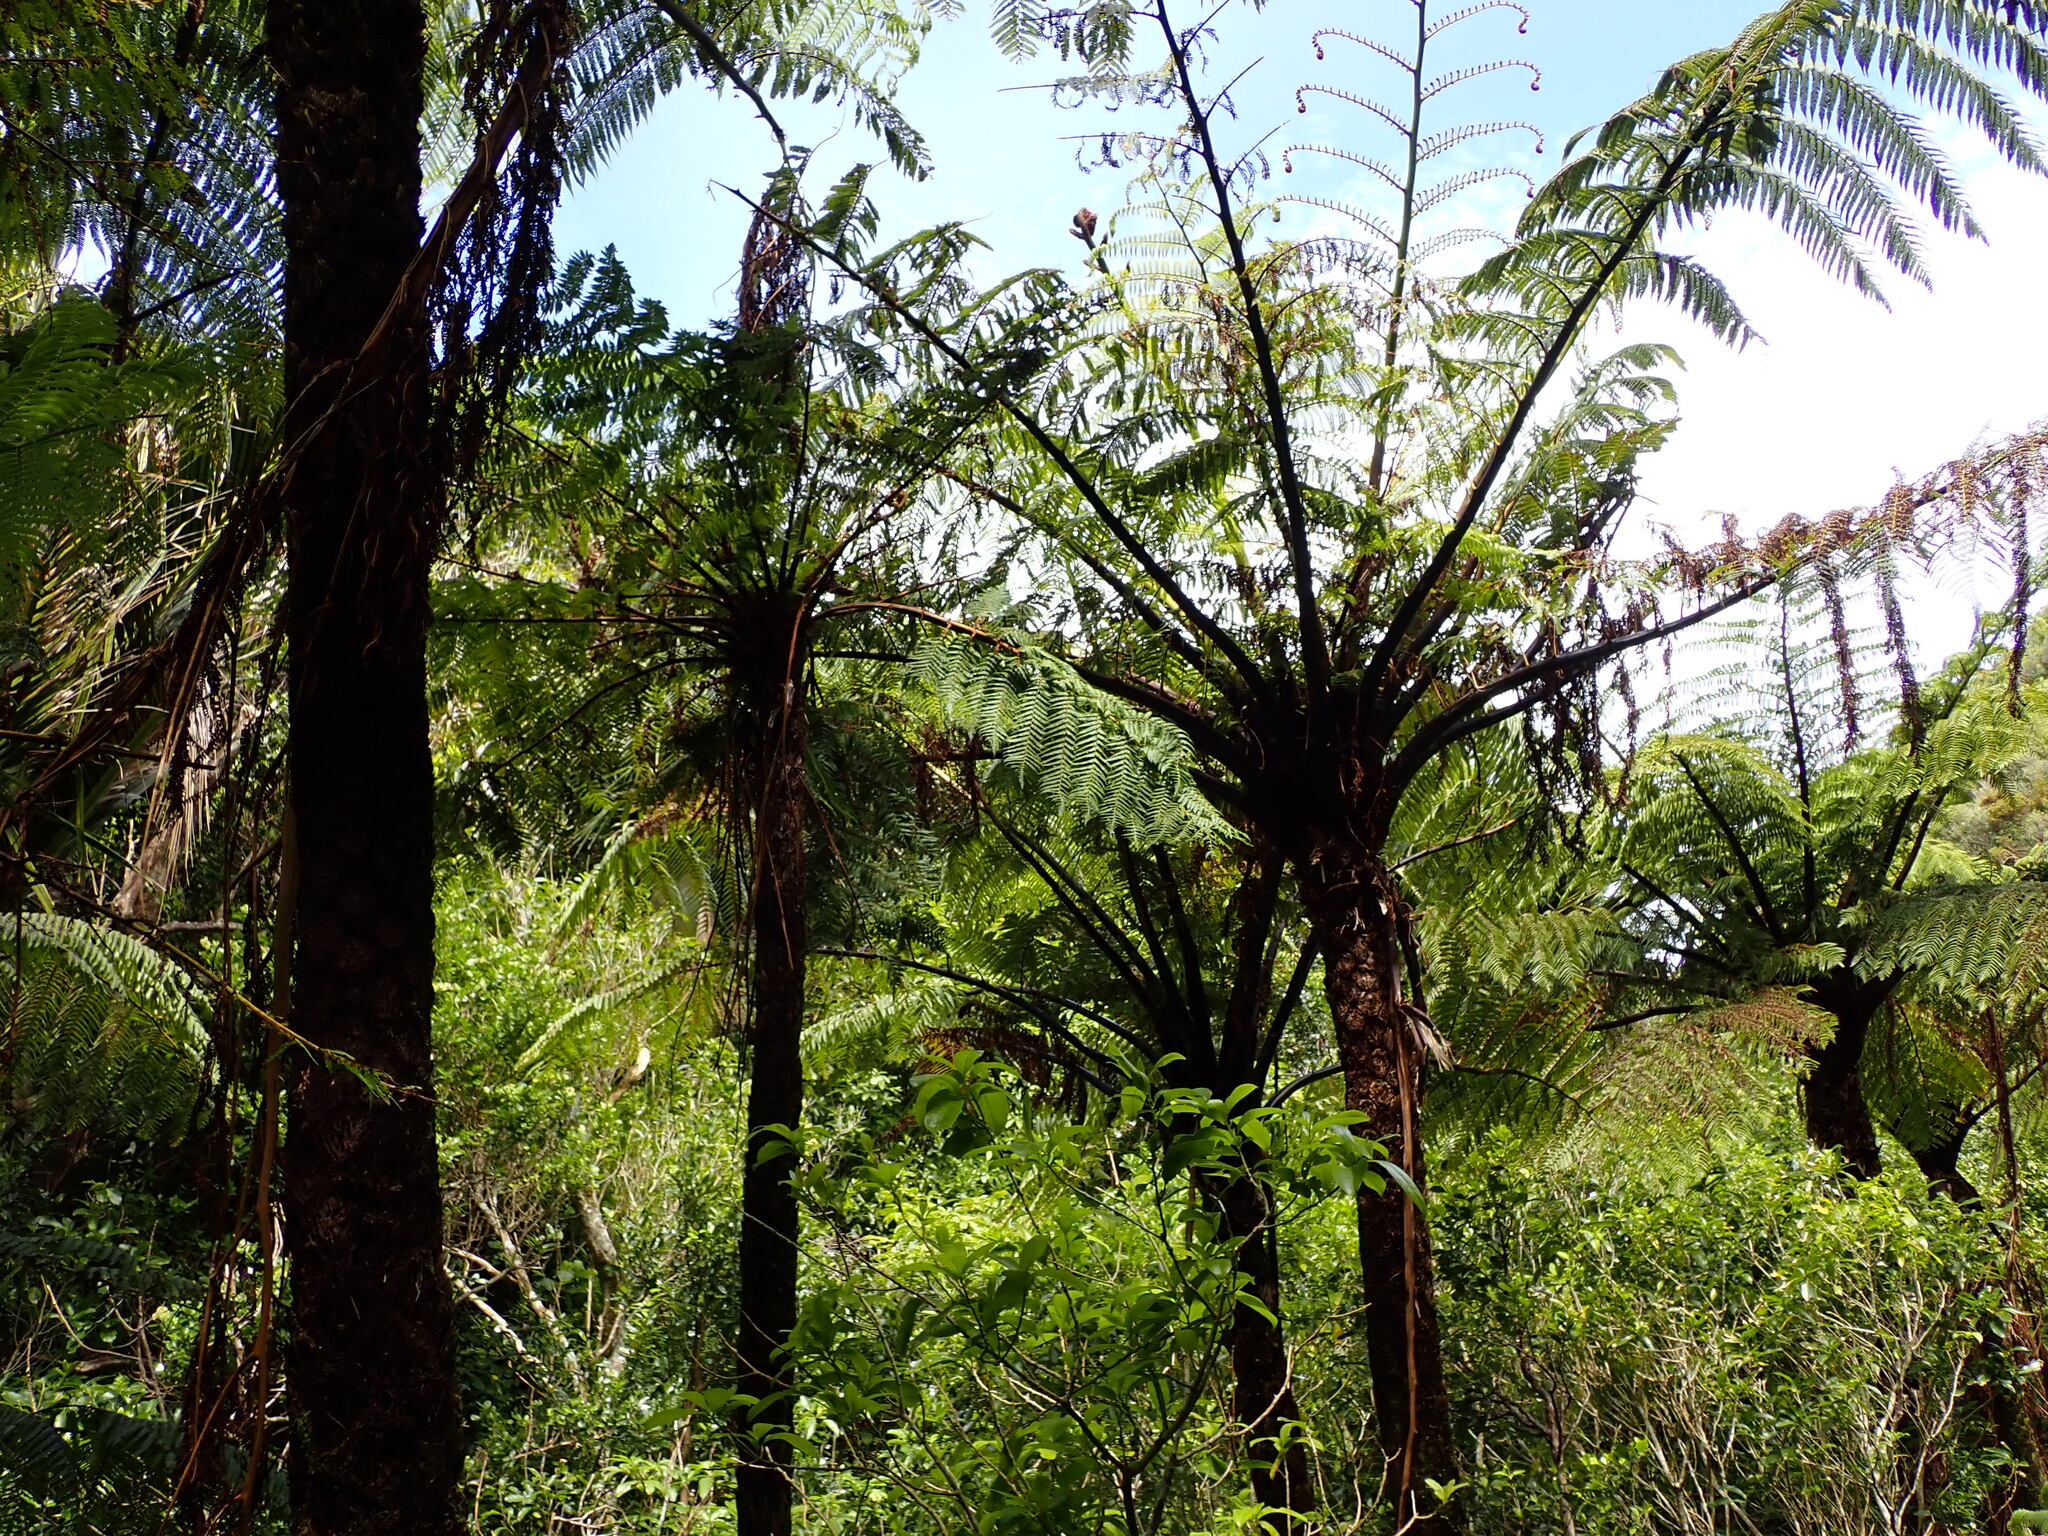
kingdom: Plantae
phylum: Tracheophyta
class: Polypodiopsida
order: Cyatheales
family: Cyatheaceae
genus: Sphaeropteris
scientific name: Sphaeropteris medullaris
